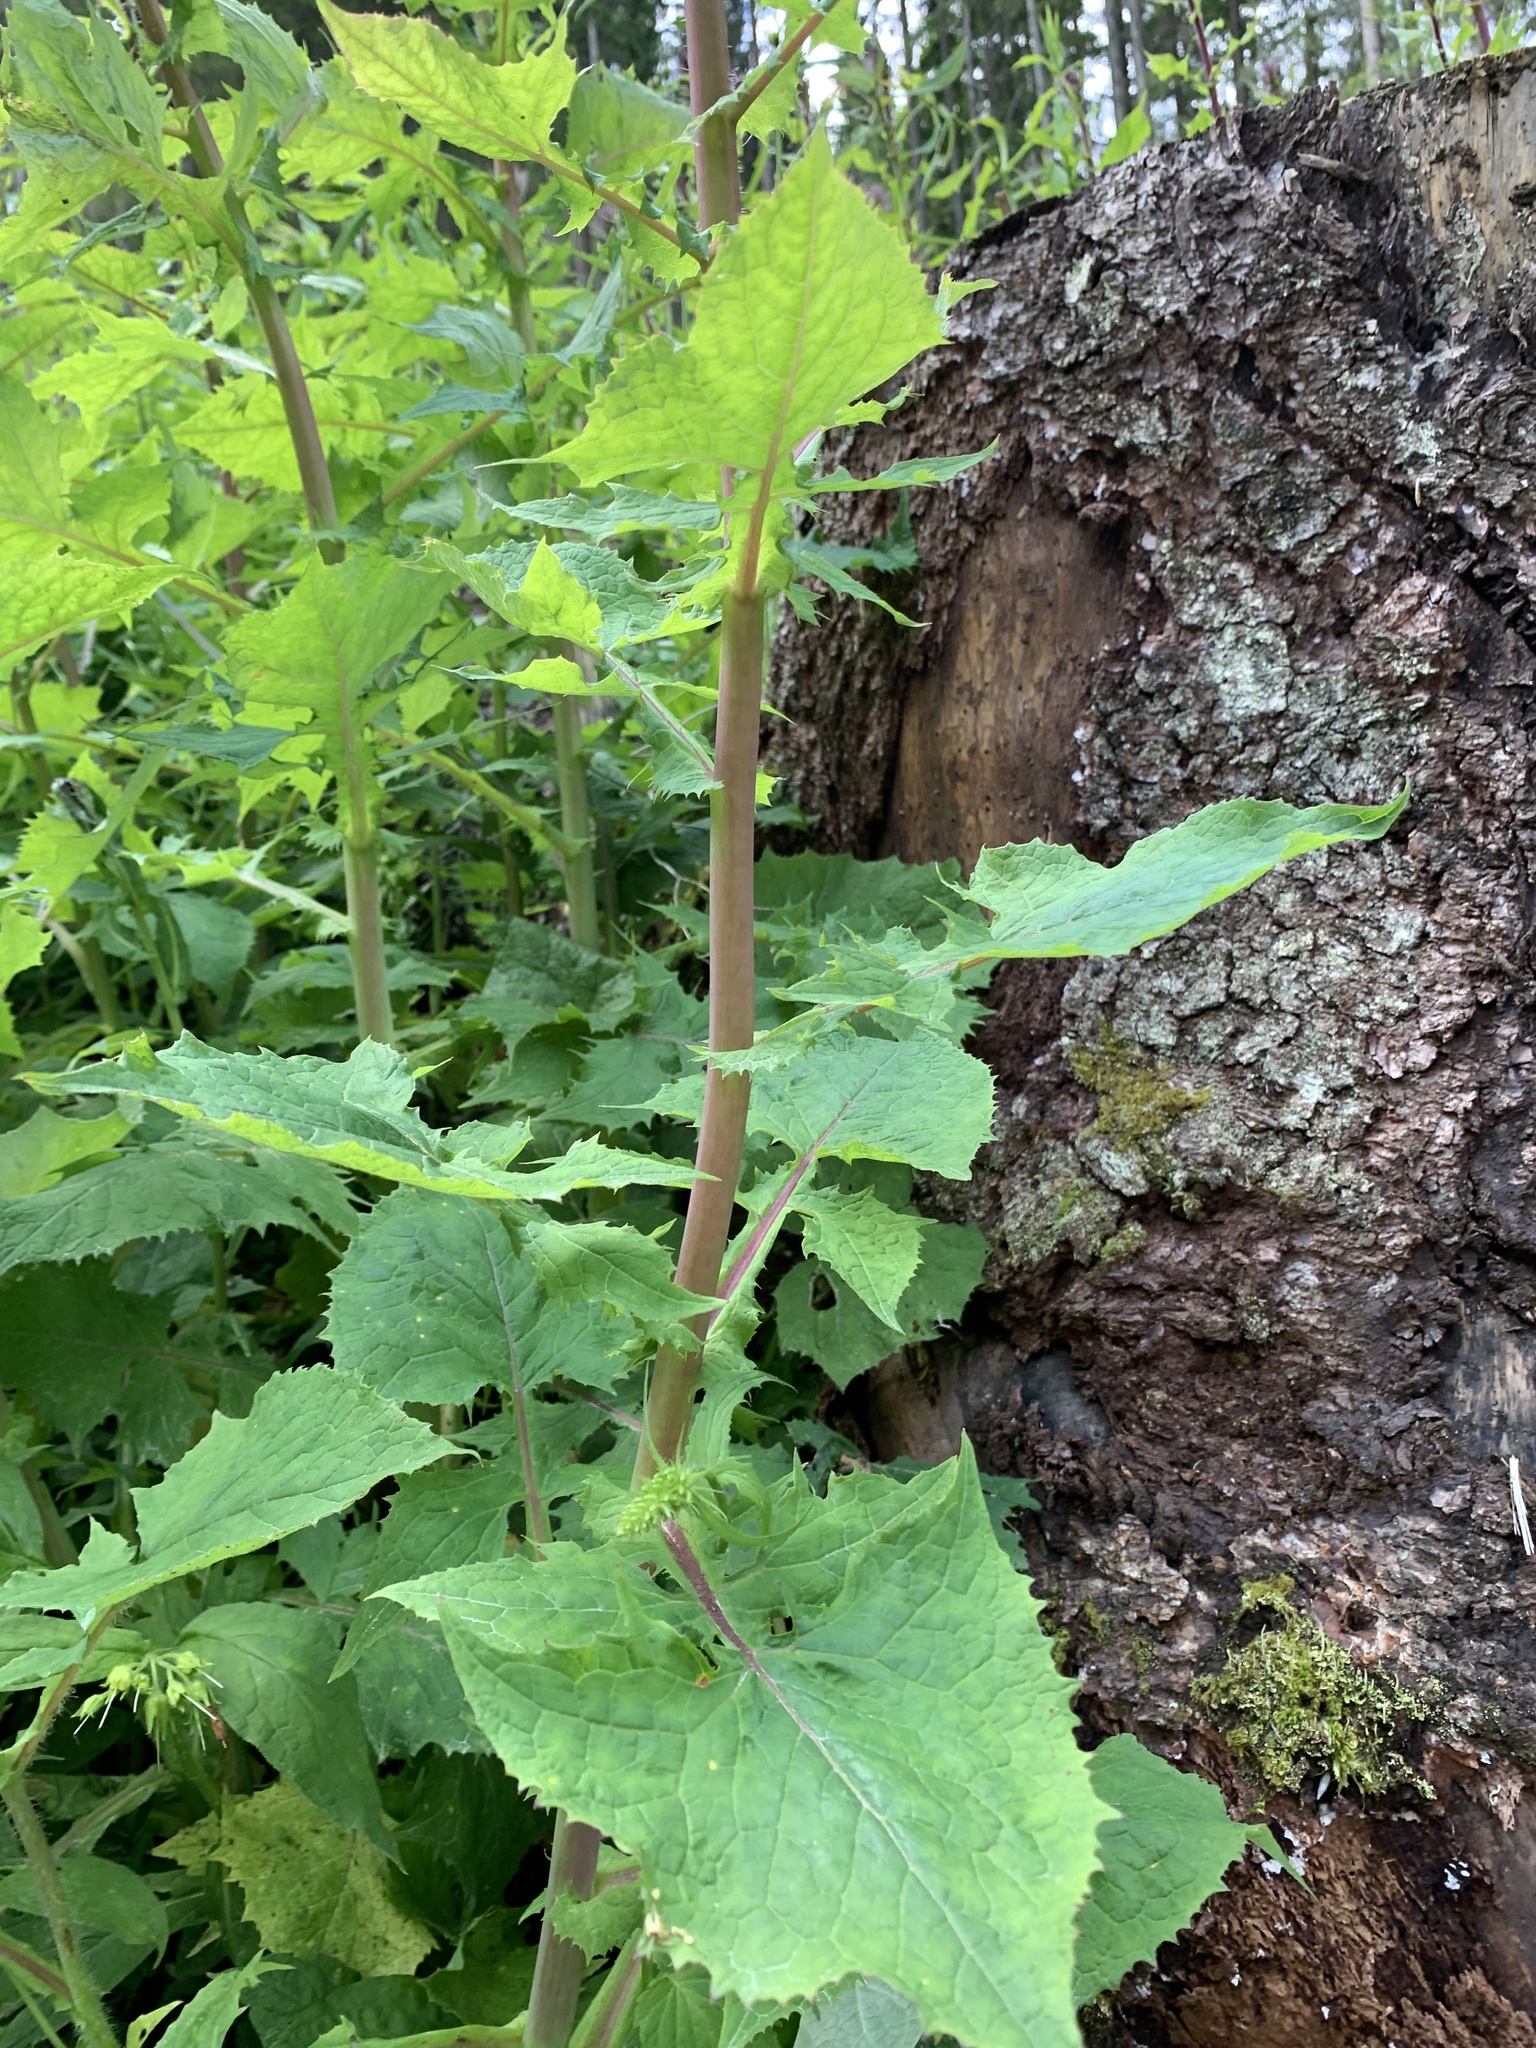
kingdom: Plantae
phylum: Tracheophyta
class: Magnoliopsida
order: Asterales
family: Asteraceae
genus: Cicerbita
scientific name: Cicerbita alpina
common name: Alpine blue-sow-thistle
